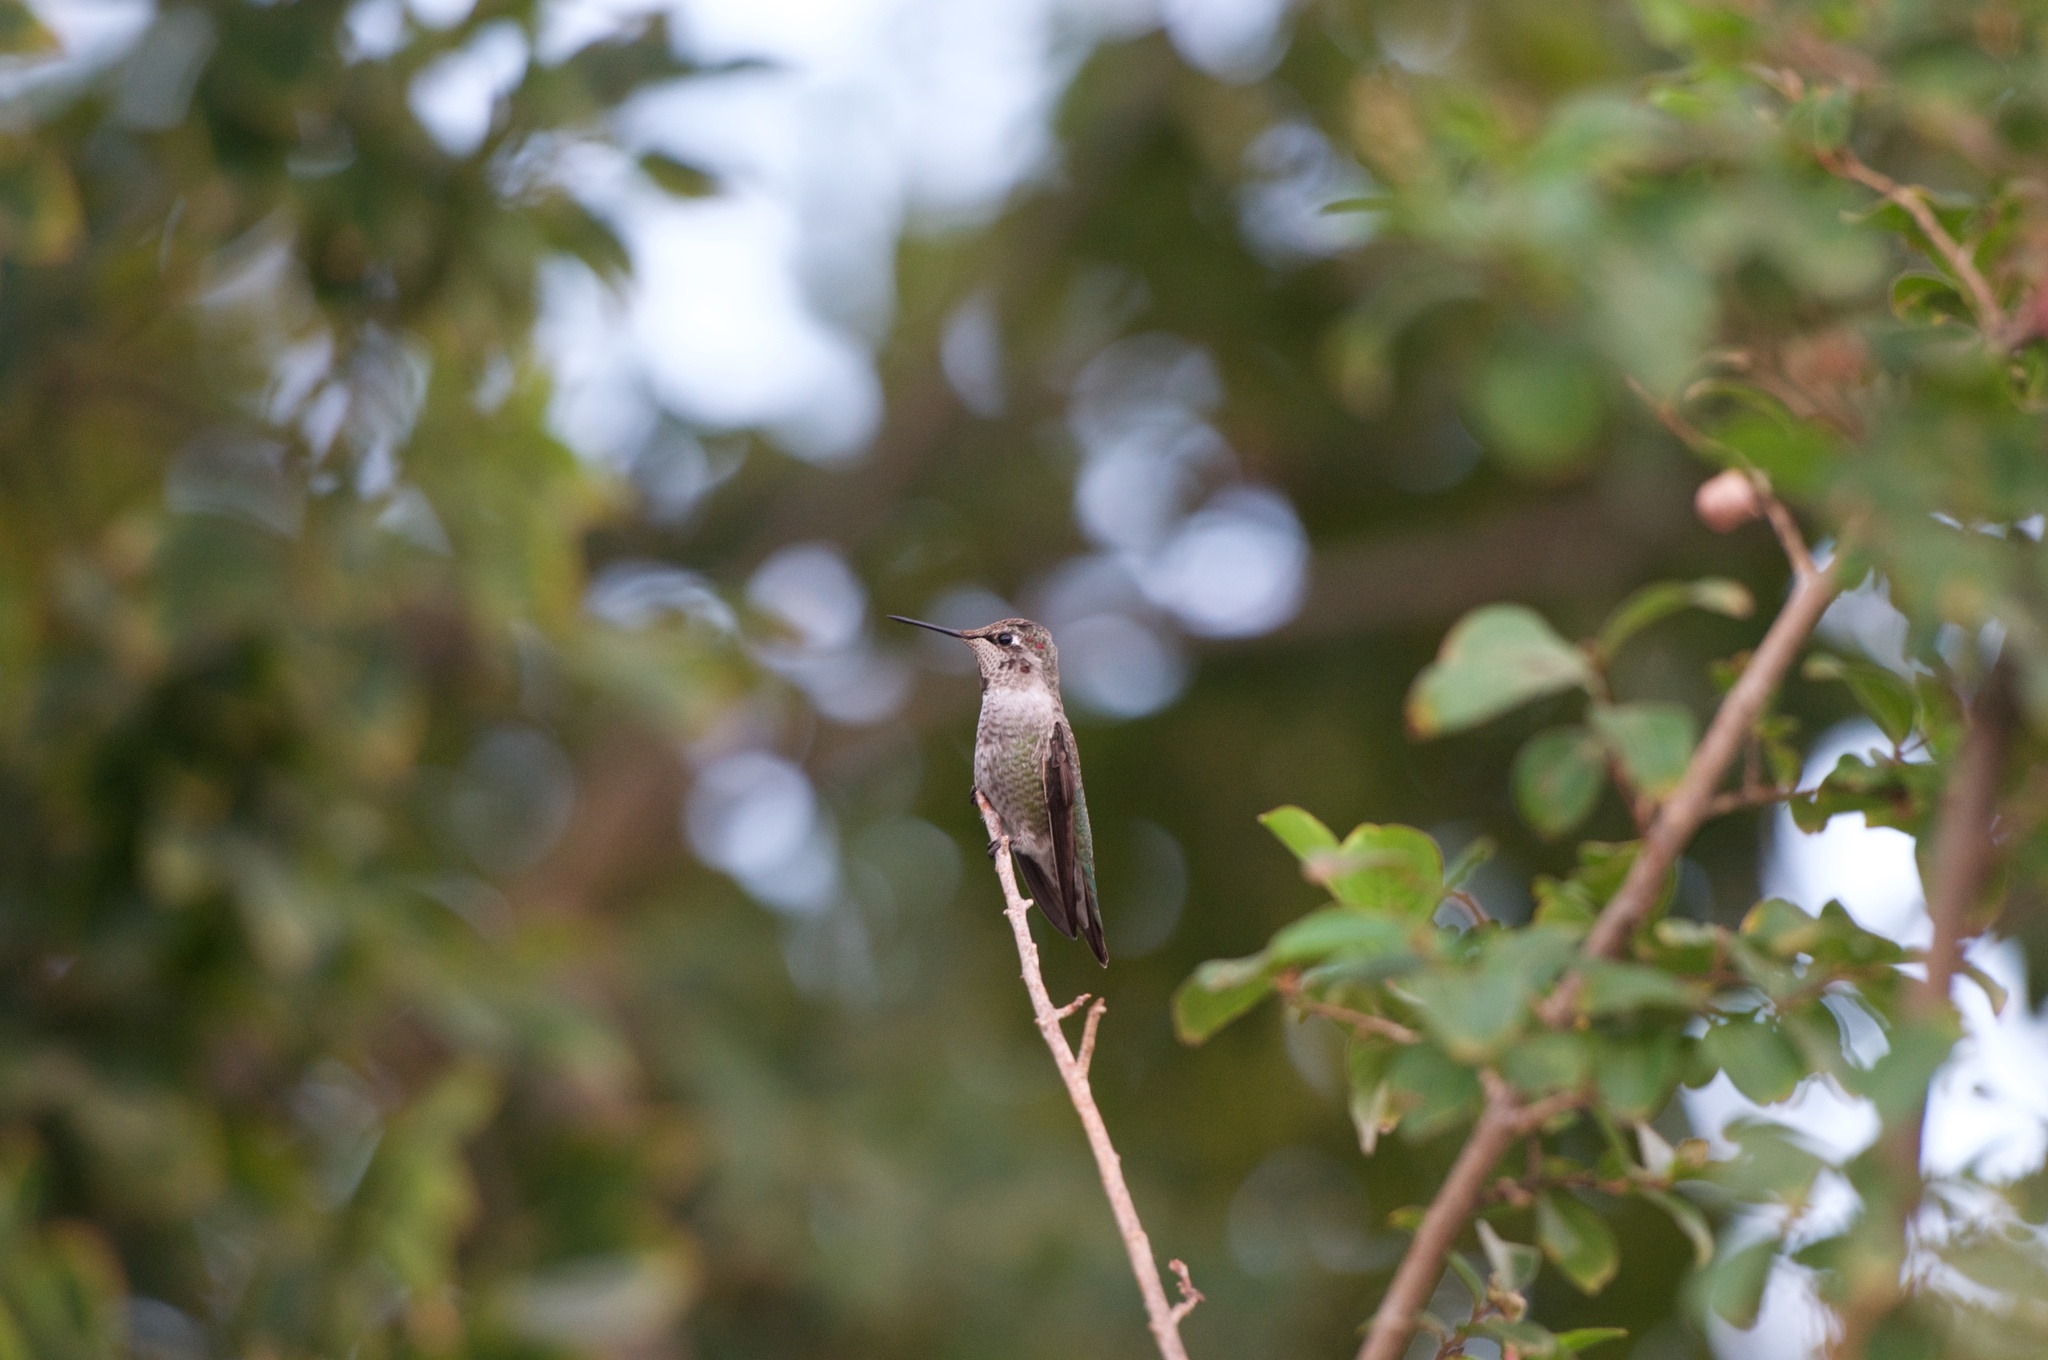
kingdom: Animalia
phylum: Chordata
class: Aves
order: Apodiformes
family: Trochilidae
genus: Calypte
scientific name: Calypte anna
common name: Anna's hummingbird
